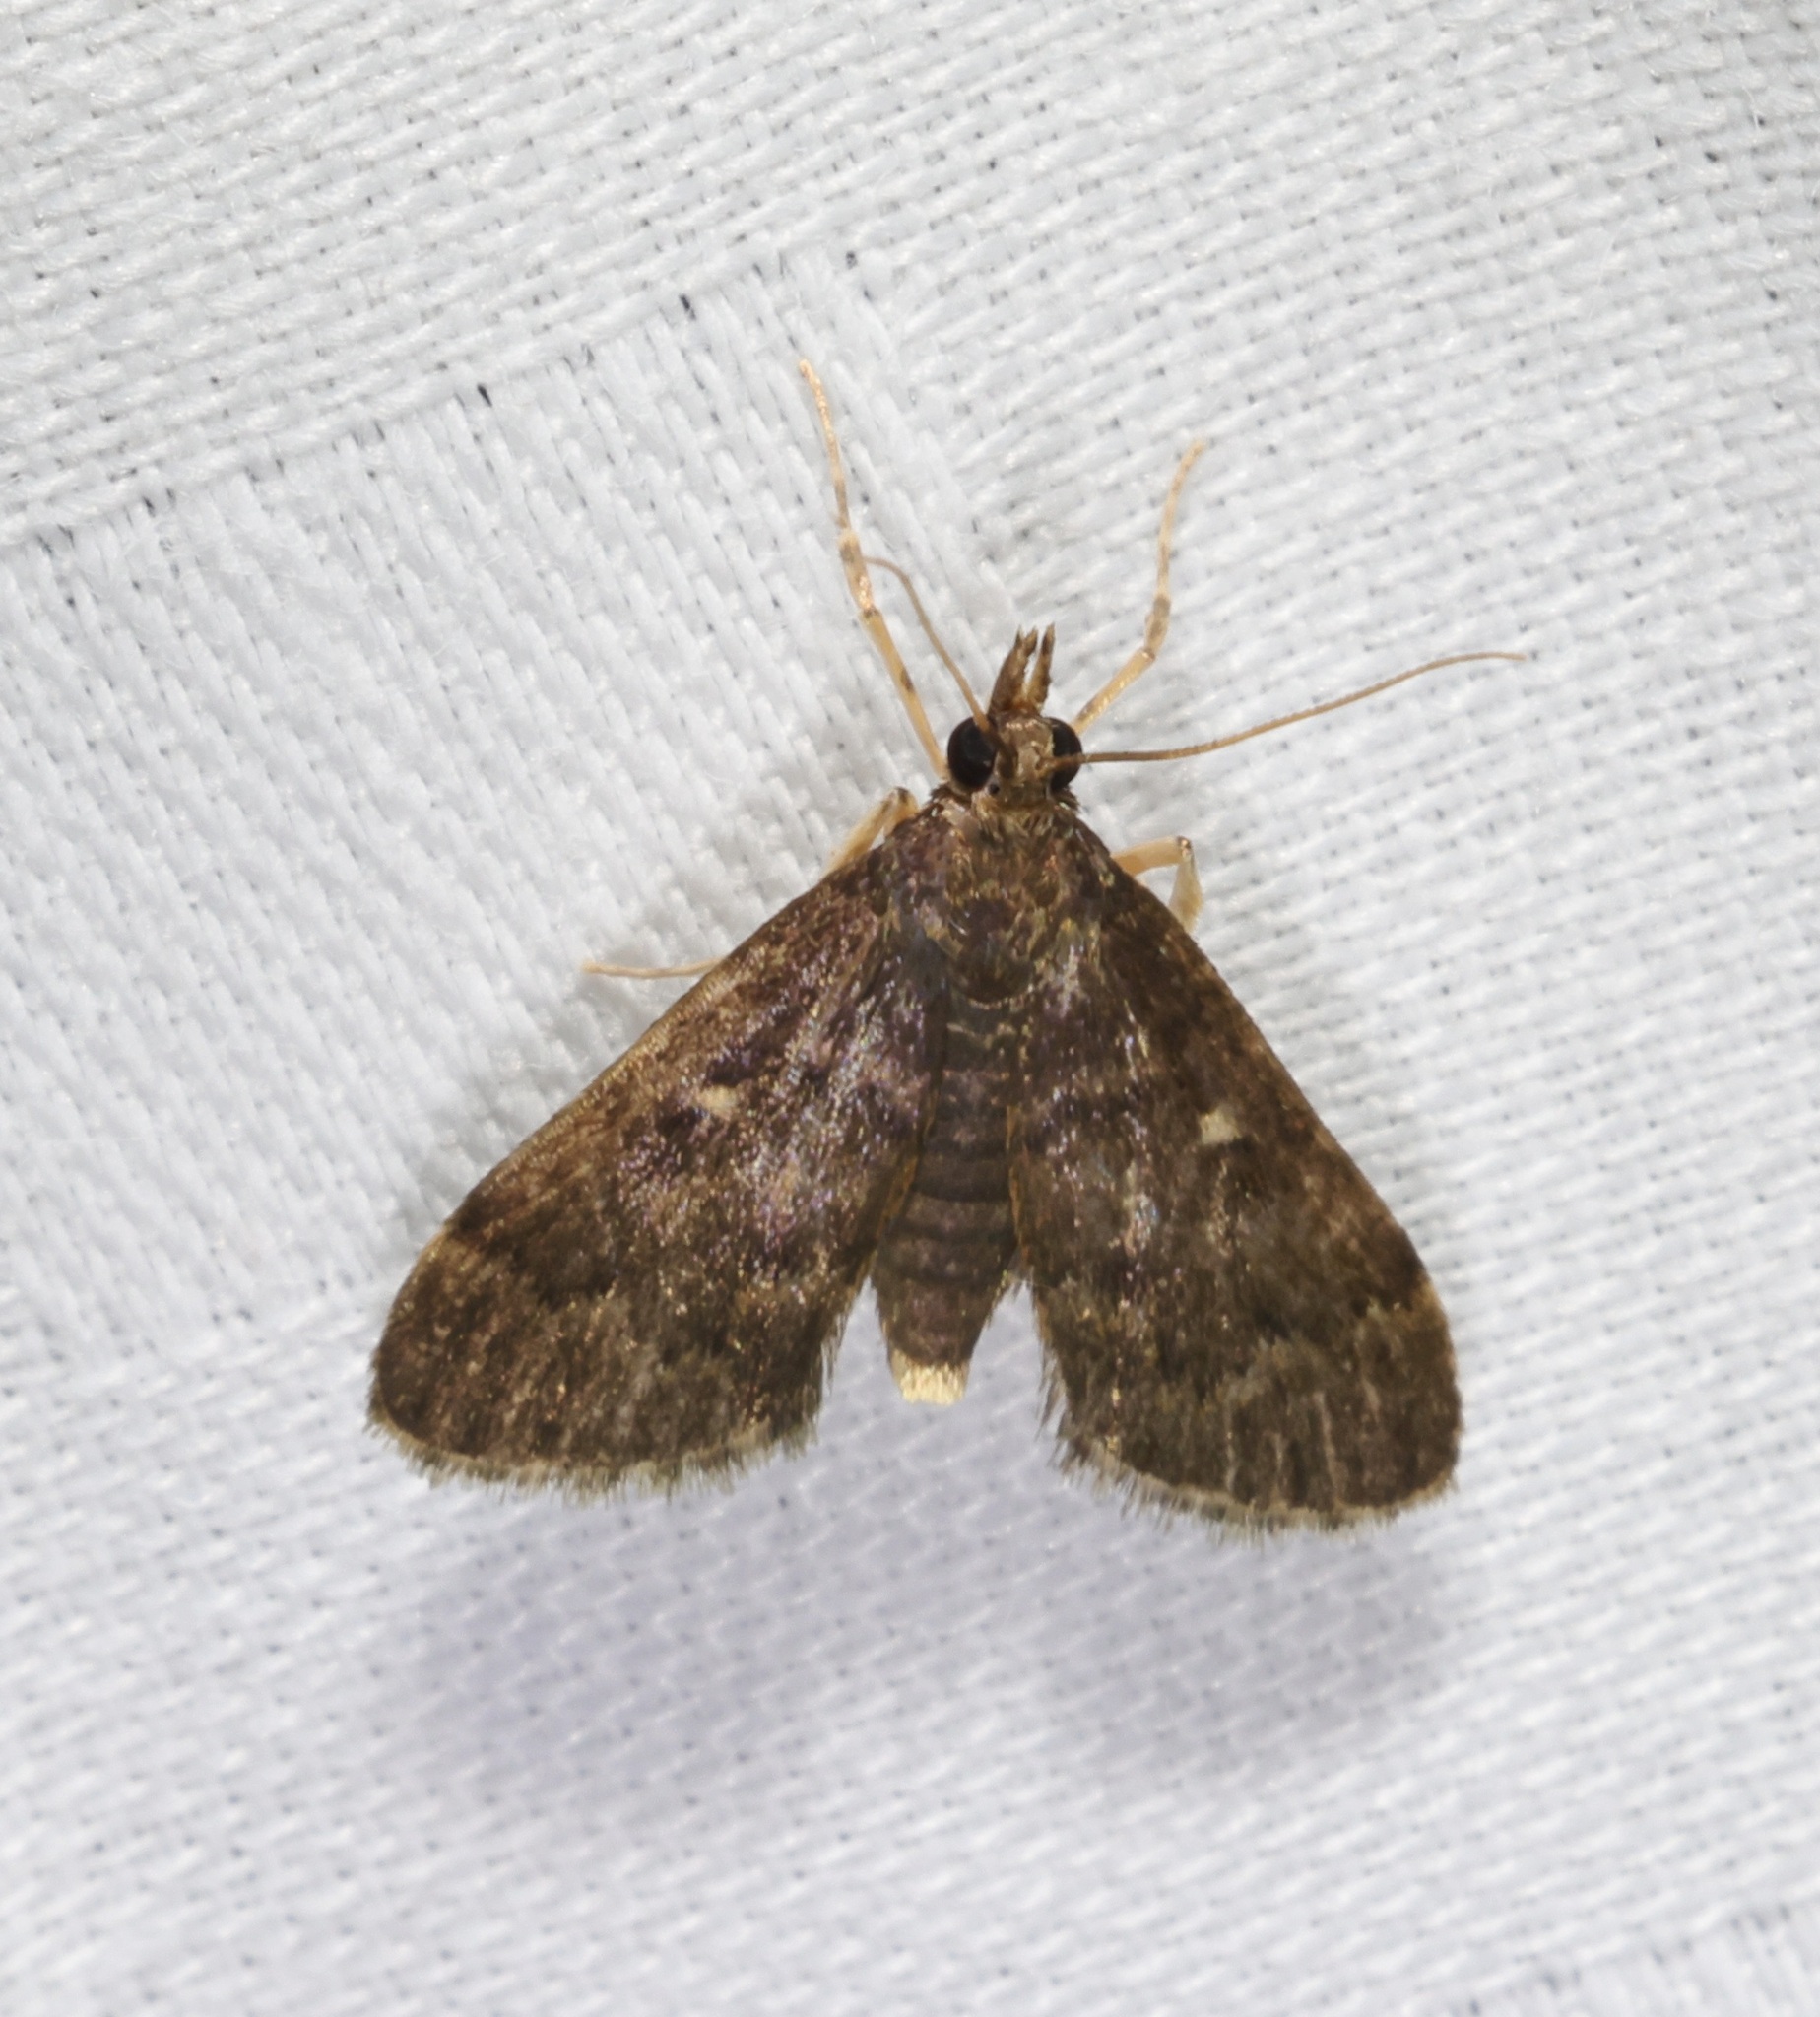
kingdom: Animalia
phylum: Arthropoda
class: Insecta
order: Lepidoptera
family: Crambidae
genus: Camptomastix
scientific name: Camptomastix hisbonalis
